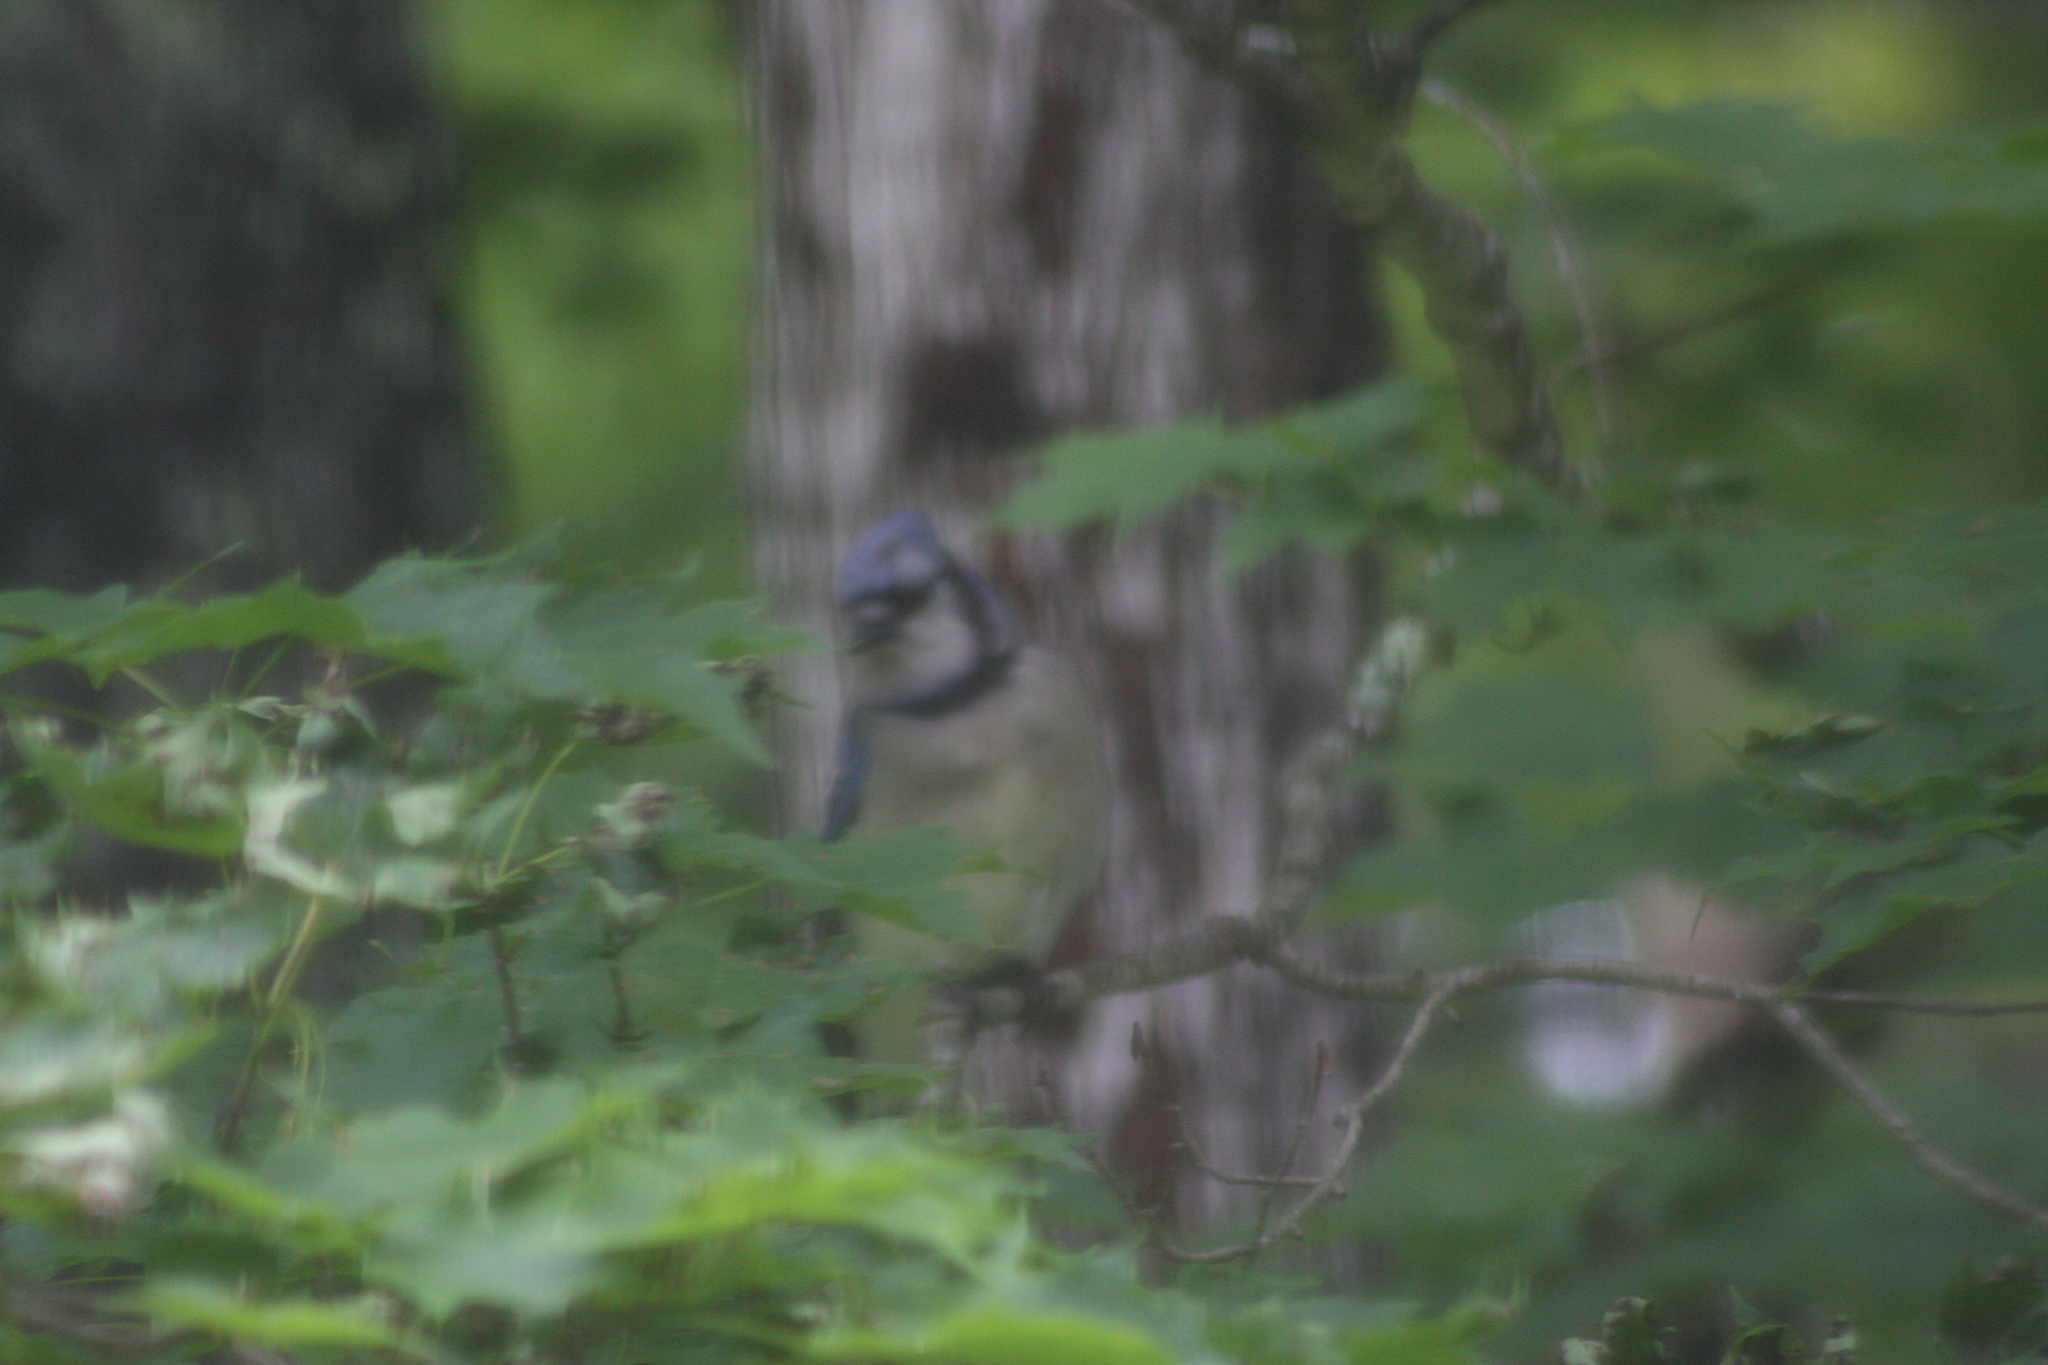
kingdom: Animalia
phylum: Chordata
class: Aves
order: Passeriformes
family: Corvidae
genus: Cyanocitta
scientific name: Cyanocitta cristata
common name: Blue jay
